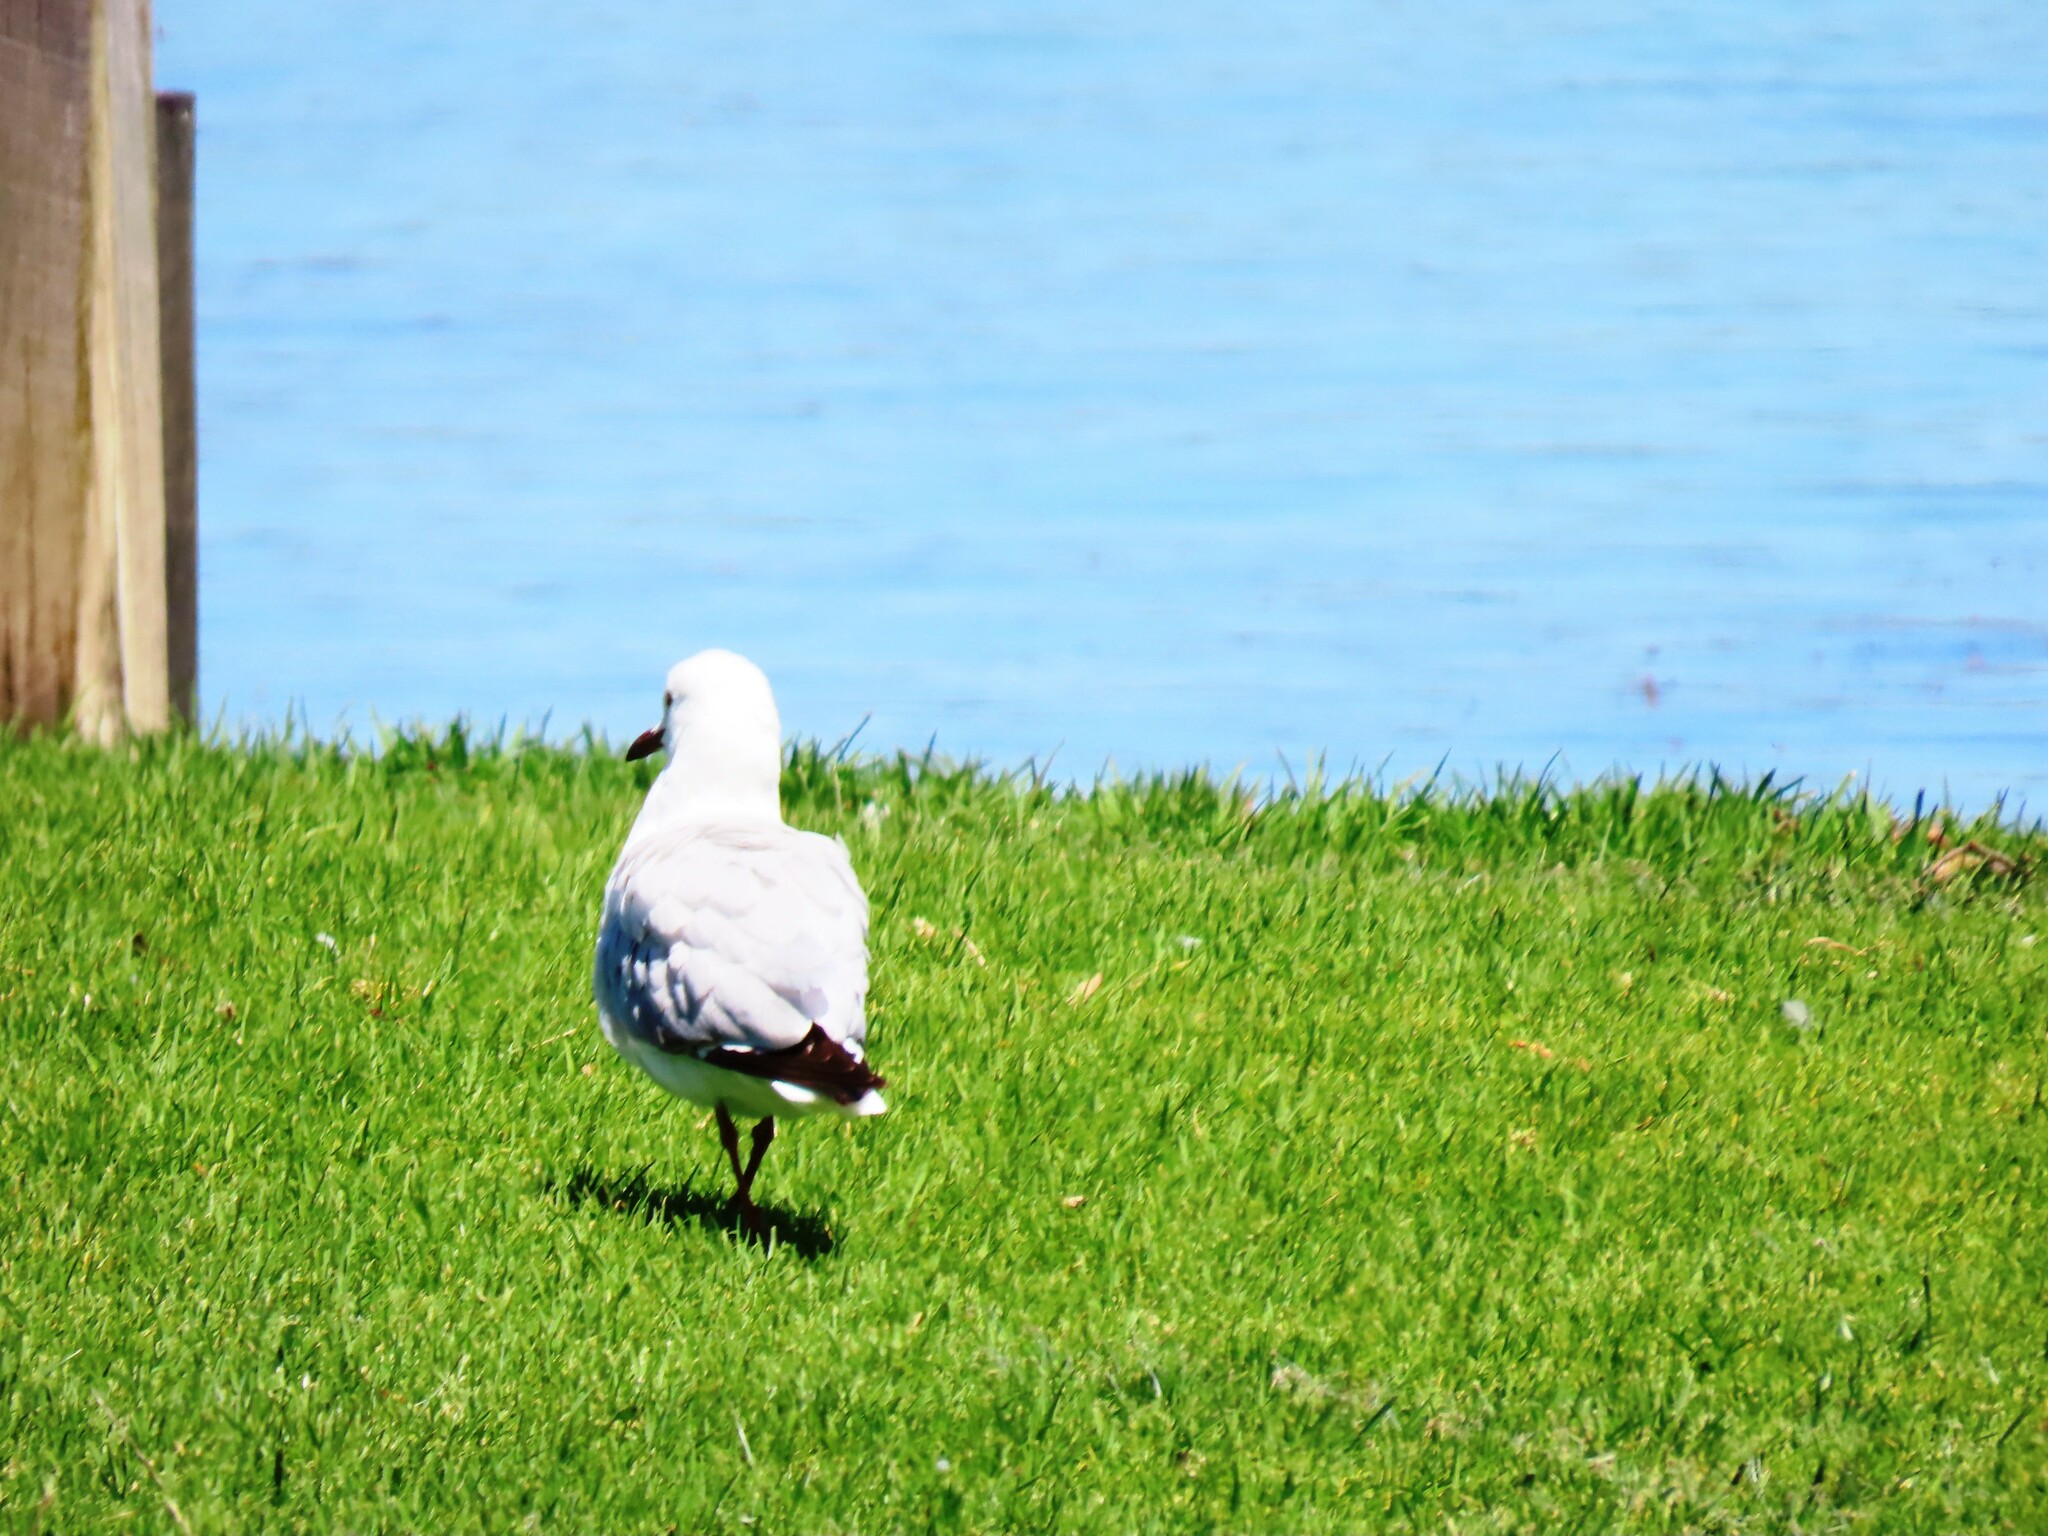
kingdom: Animalia
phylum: Chordata
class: Aves
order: Charadriiformes
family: Laridae
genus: Chroicocephalus
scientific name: Chroicocephalus novaehollandiae
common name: Silver gull
